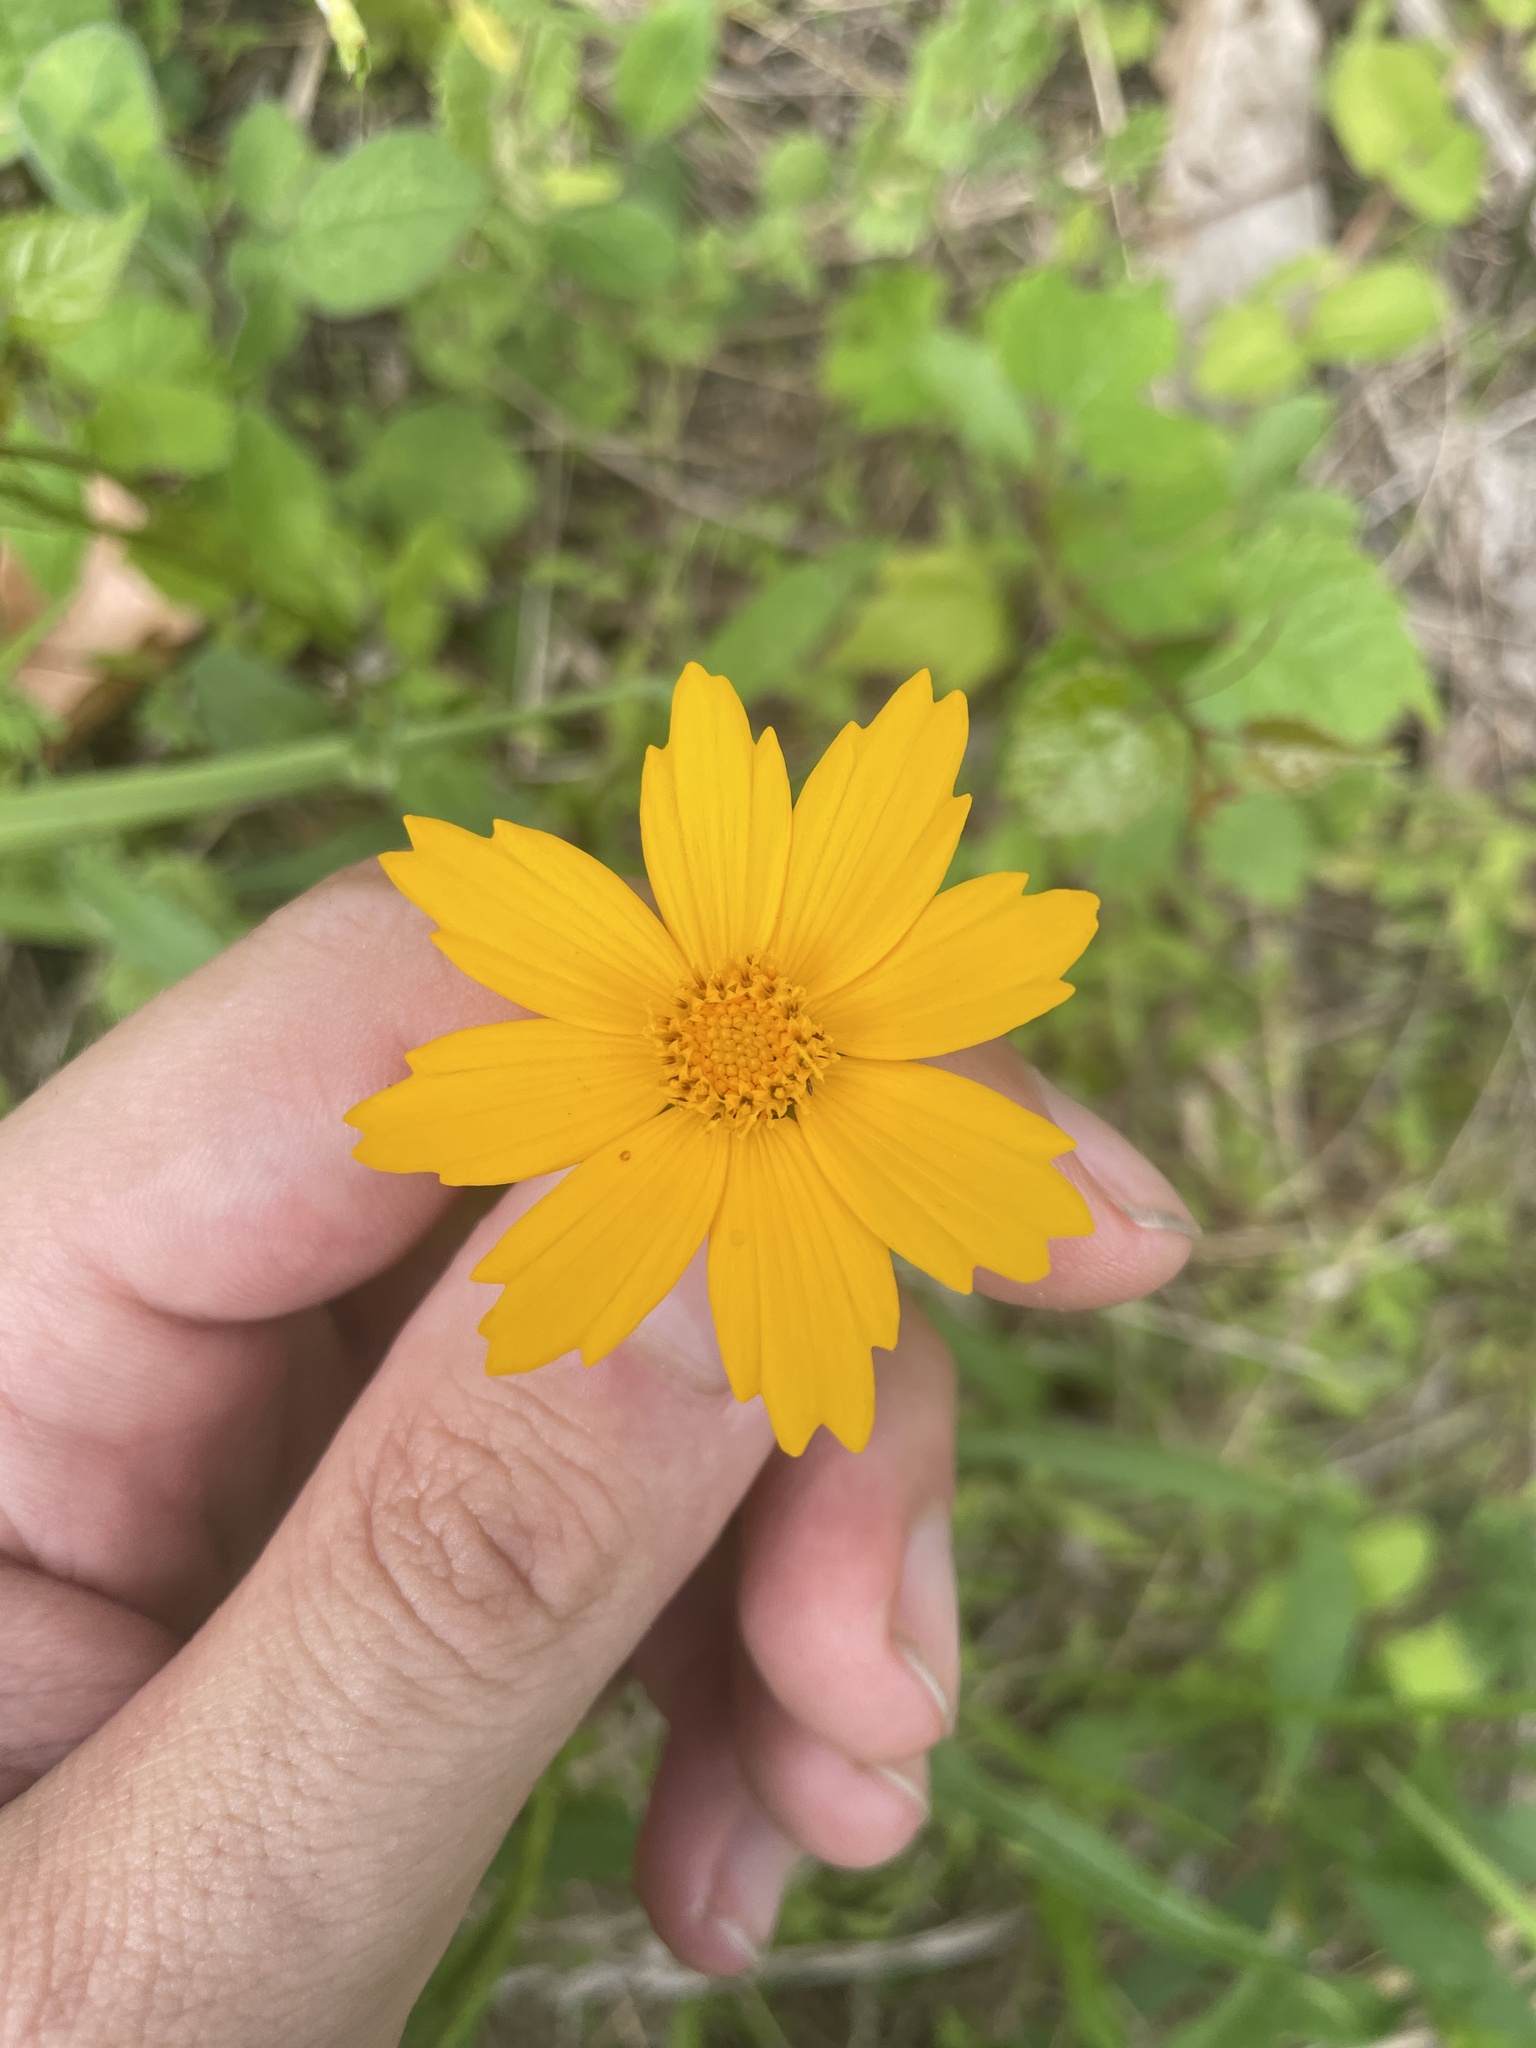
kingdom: Plantae
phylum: Tracheophyta
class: Magnoliopsida
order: Asterales
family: Asteraceae
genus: Coreopsis
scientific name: Coreopsis auriculata
